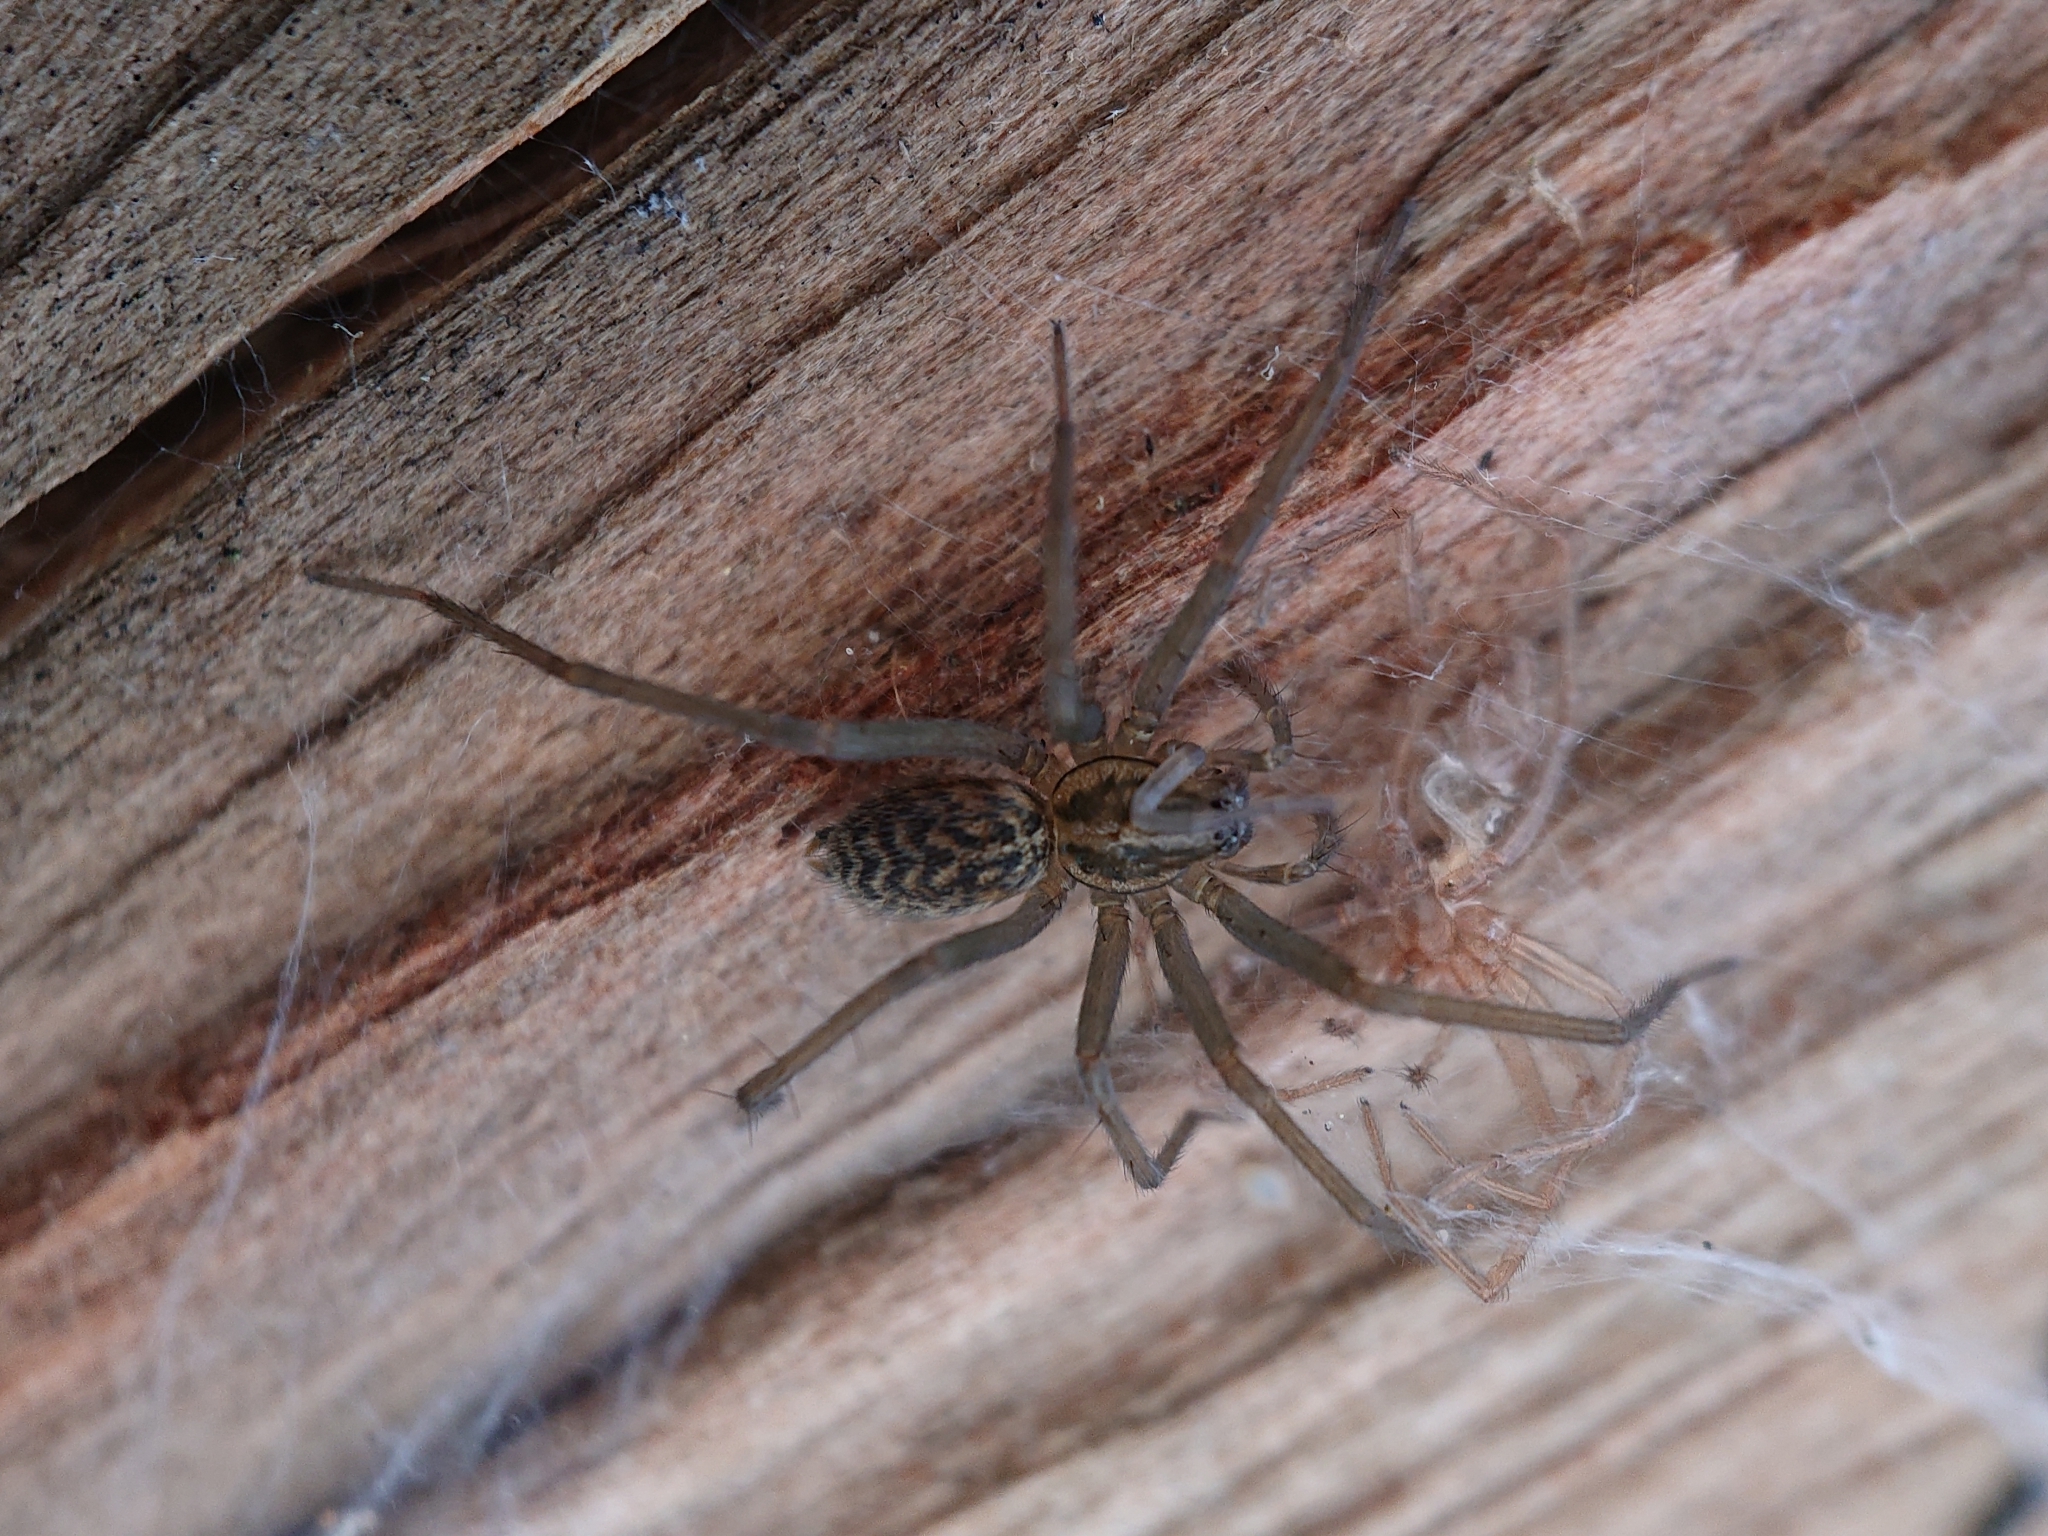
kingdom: Animalia
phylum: Arthropoda
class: Arachnida
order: Araneae
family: Agelenidae
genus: Eratigena
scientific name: Eratigena atrica
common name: Giant house spider
